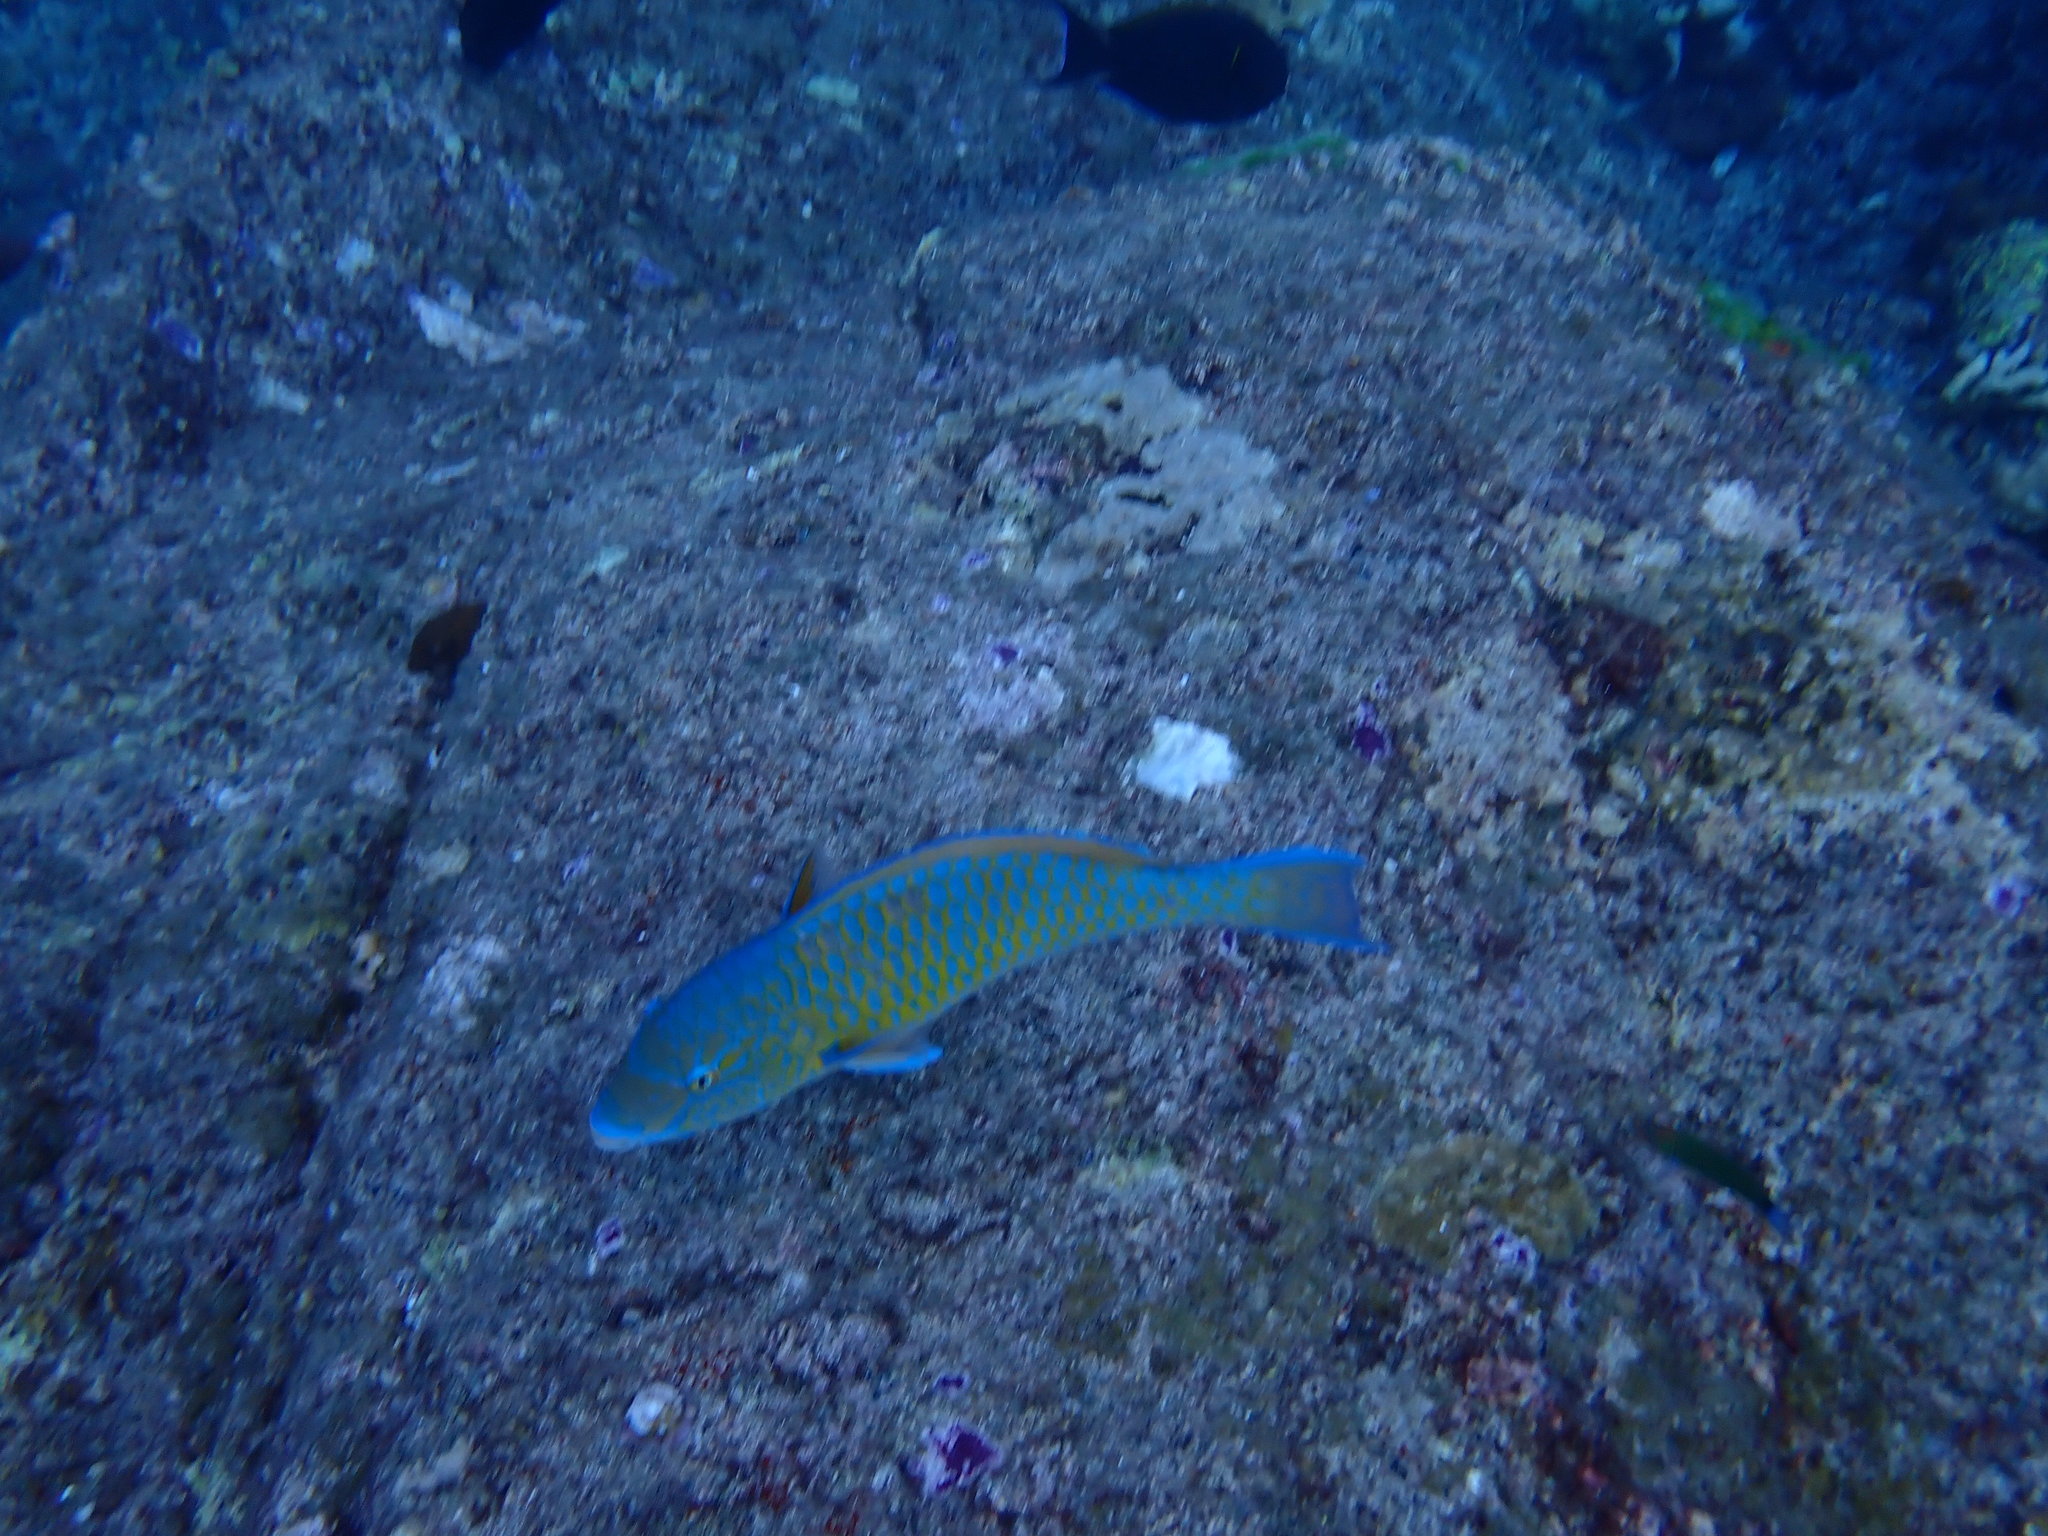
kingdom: Animalia
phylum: Chordata
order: Perciformes
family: Scaridae
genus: Scarus
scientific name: Scarus ghobban
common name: Blue-barred parrotfish
